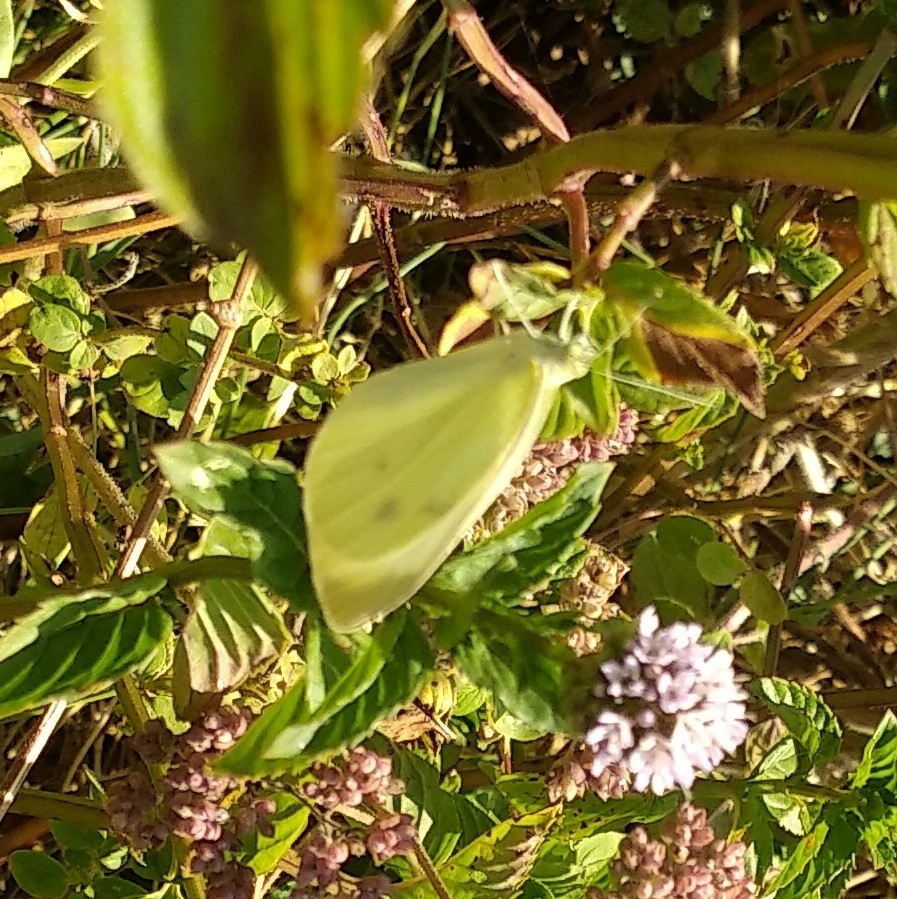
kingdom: Animalia
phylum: Arthropoda
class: Insecta
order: Lepidoptera
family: Pieridae
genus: Pieris
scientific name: Pieris rapae
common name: Small white
